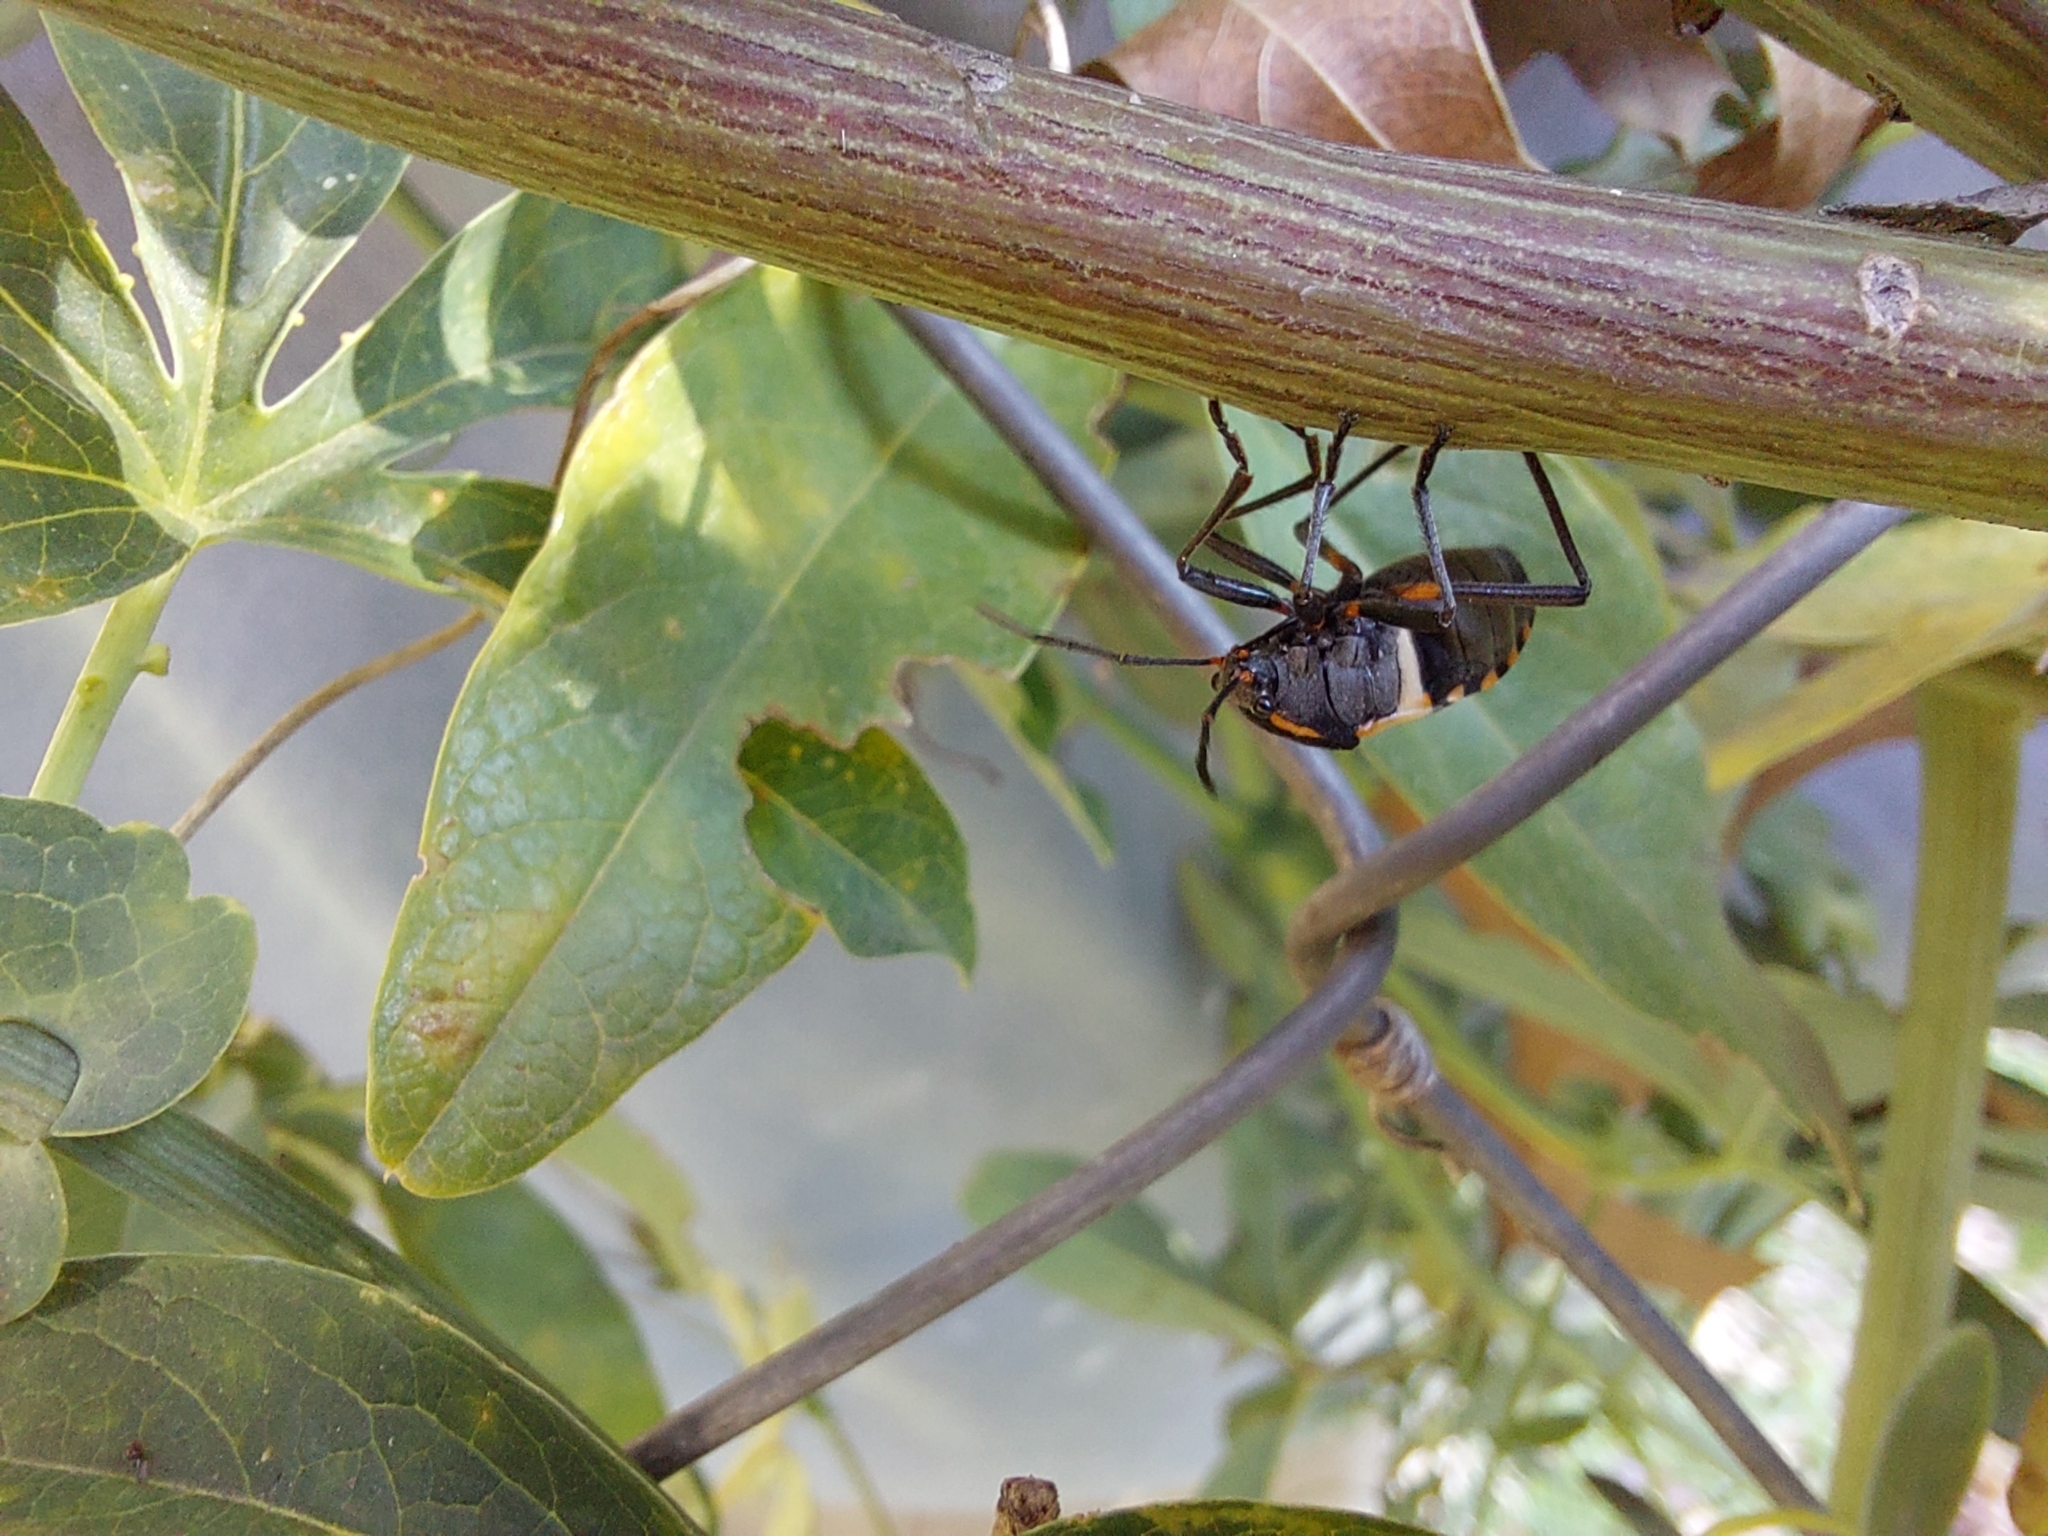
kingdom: Animalia
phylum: Arthropoda
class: Insecta
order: Hemiptera
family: Largidae
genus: Largus
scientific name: Largus fasciatus
